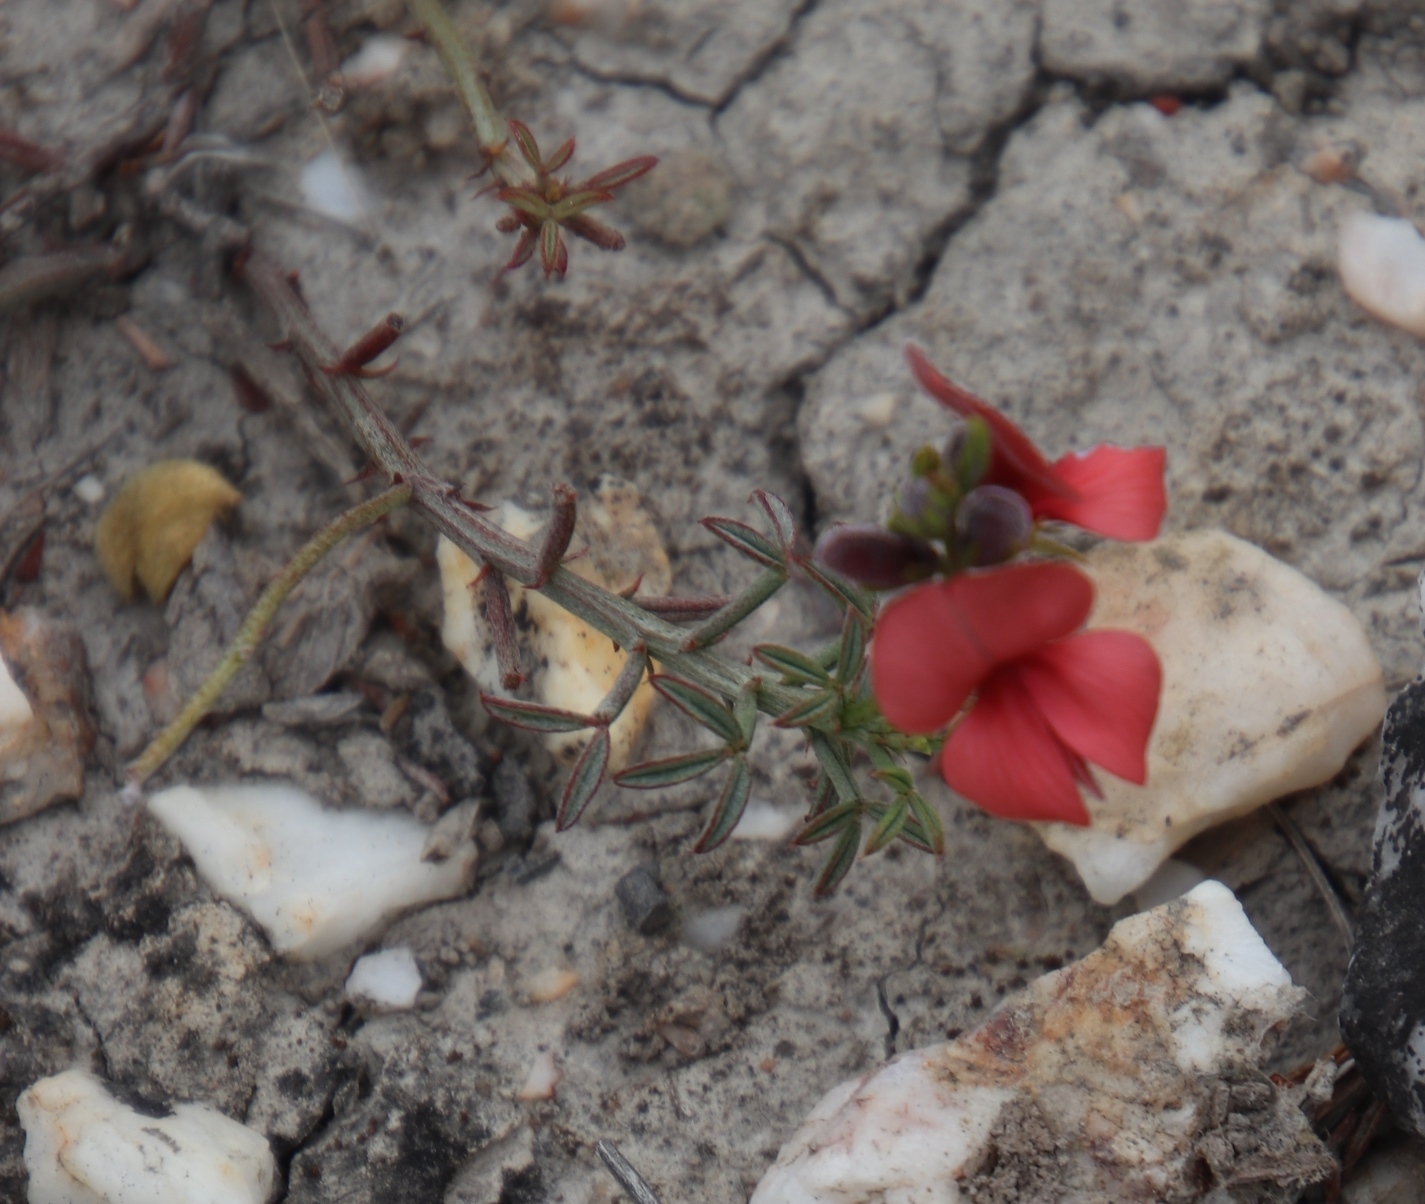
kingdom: Plantae
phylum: Tracheophyta
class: Magnoliopsida
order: Fabales
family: Fabaceae
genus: Indigofera
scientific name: Indigofera heterophylla
